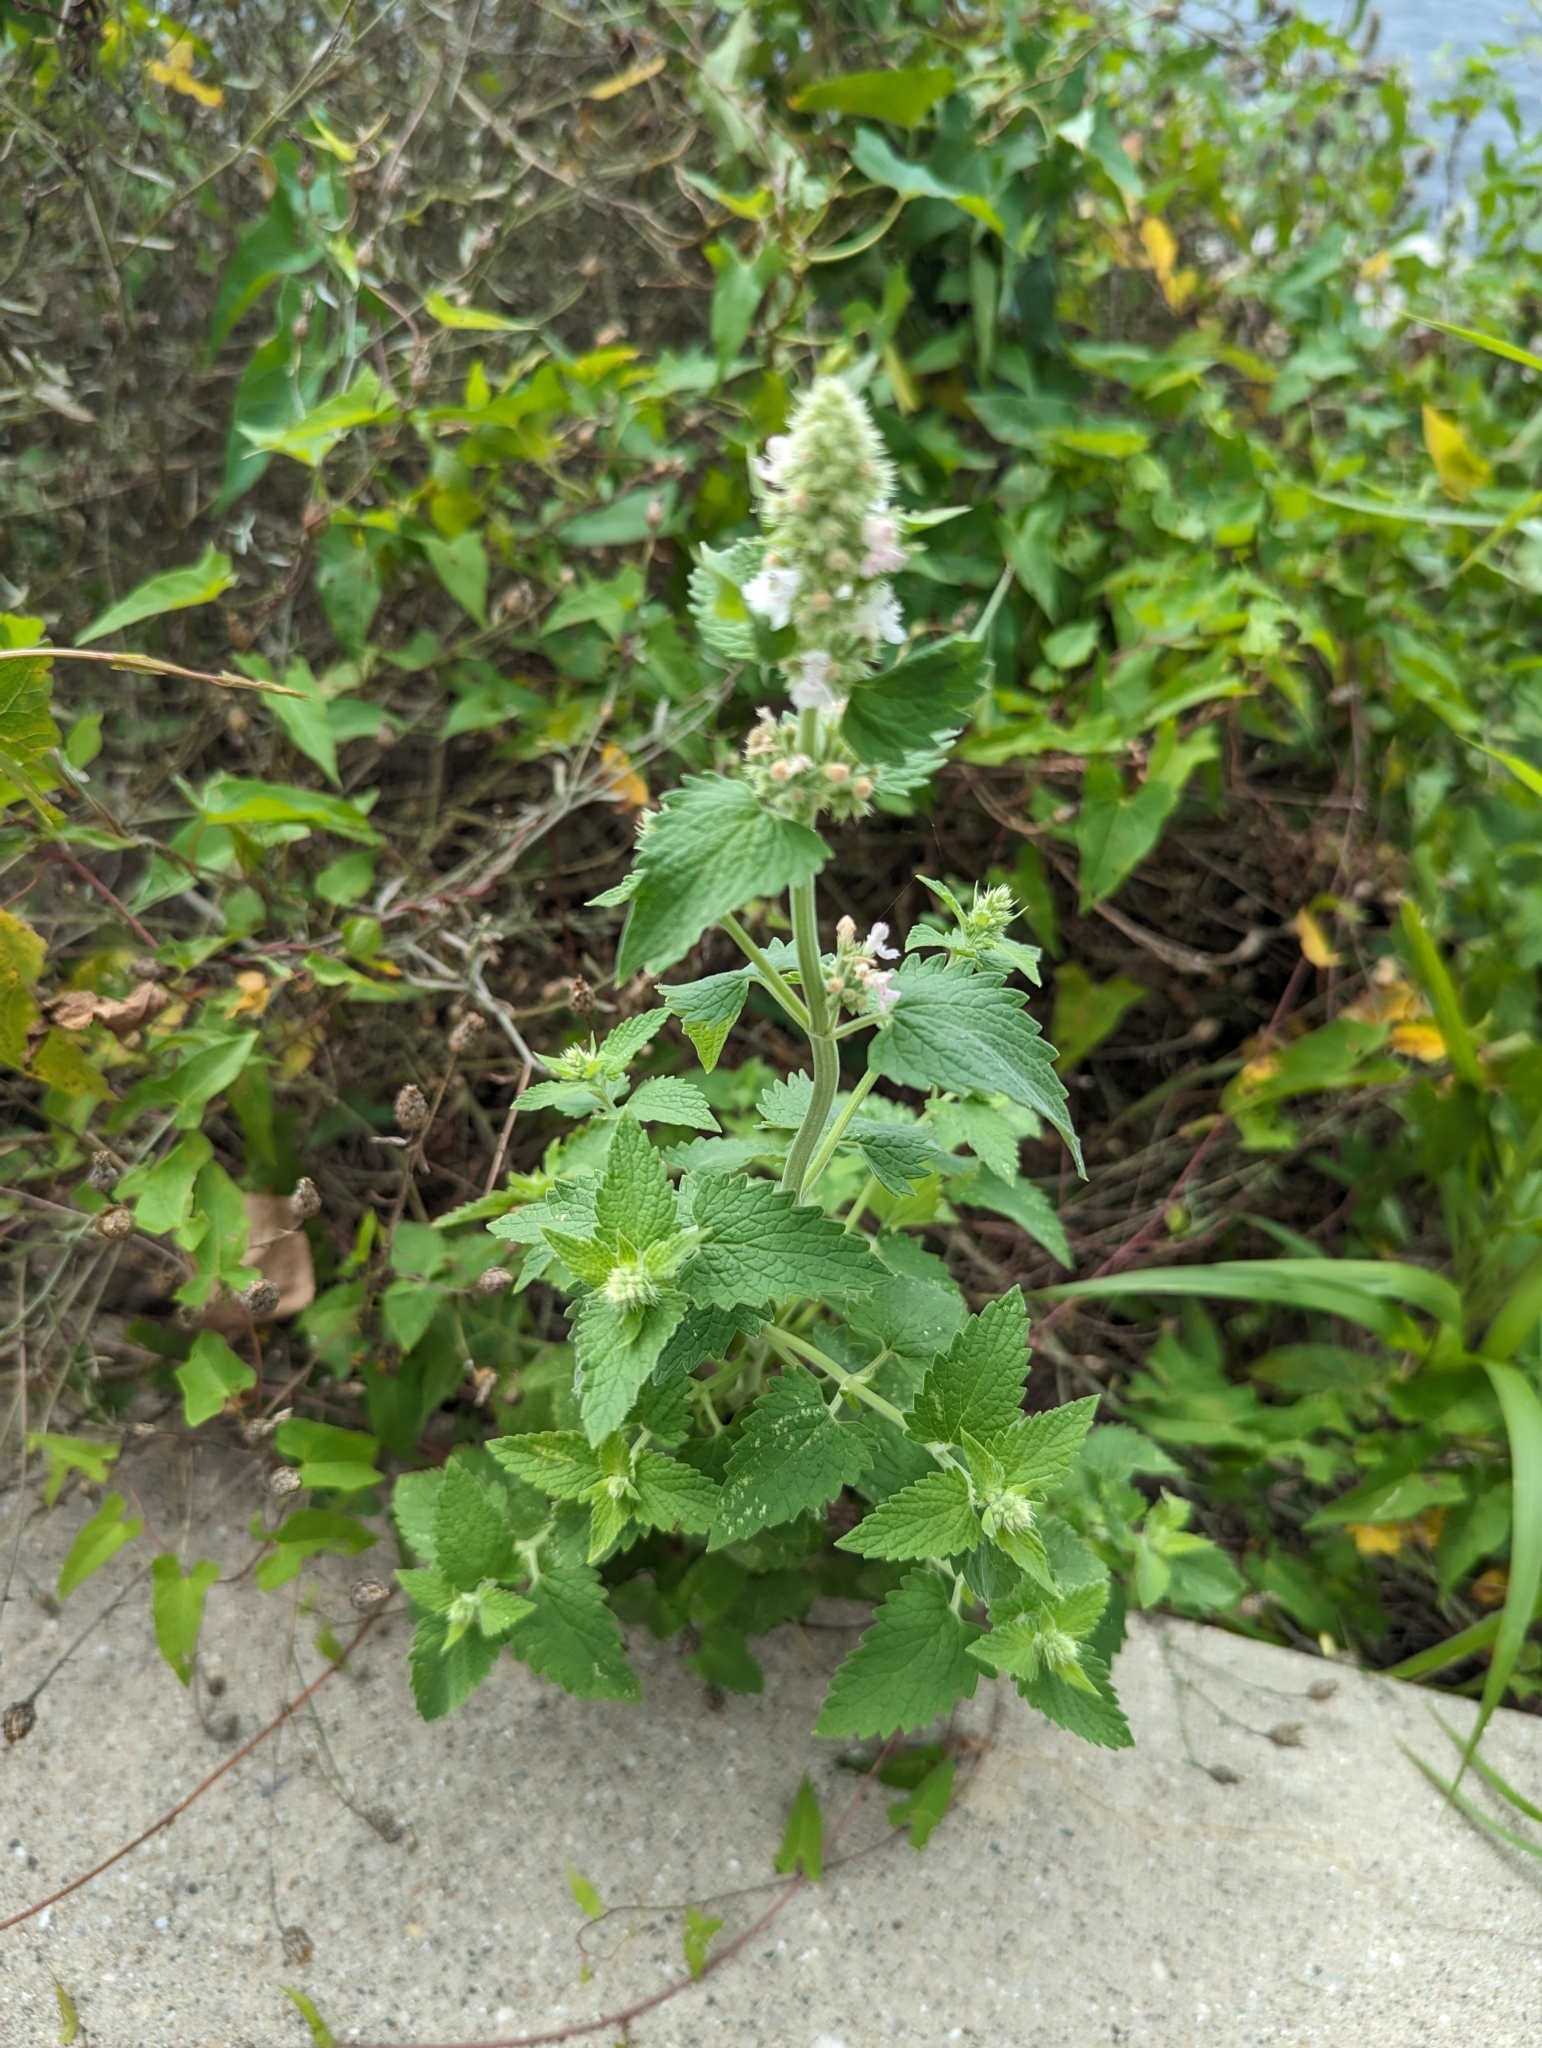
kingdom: Plantae
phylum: Tracheophyta
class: Magnoliopsida
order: Lamiales
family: Lamiaceae
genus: Nepeta
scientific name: Nepeta cataria
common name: Catnip
